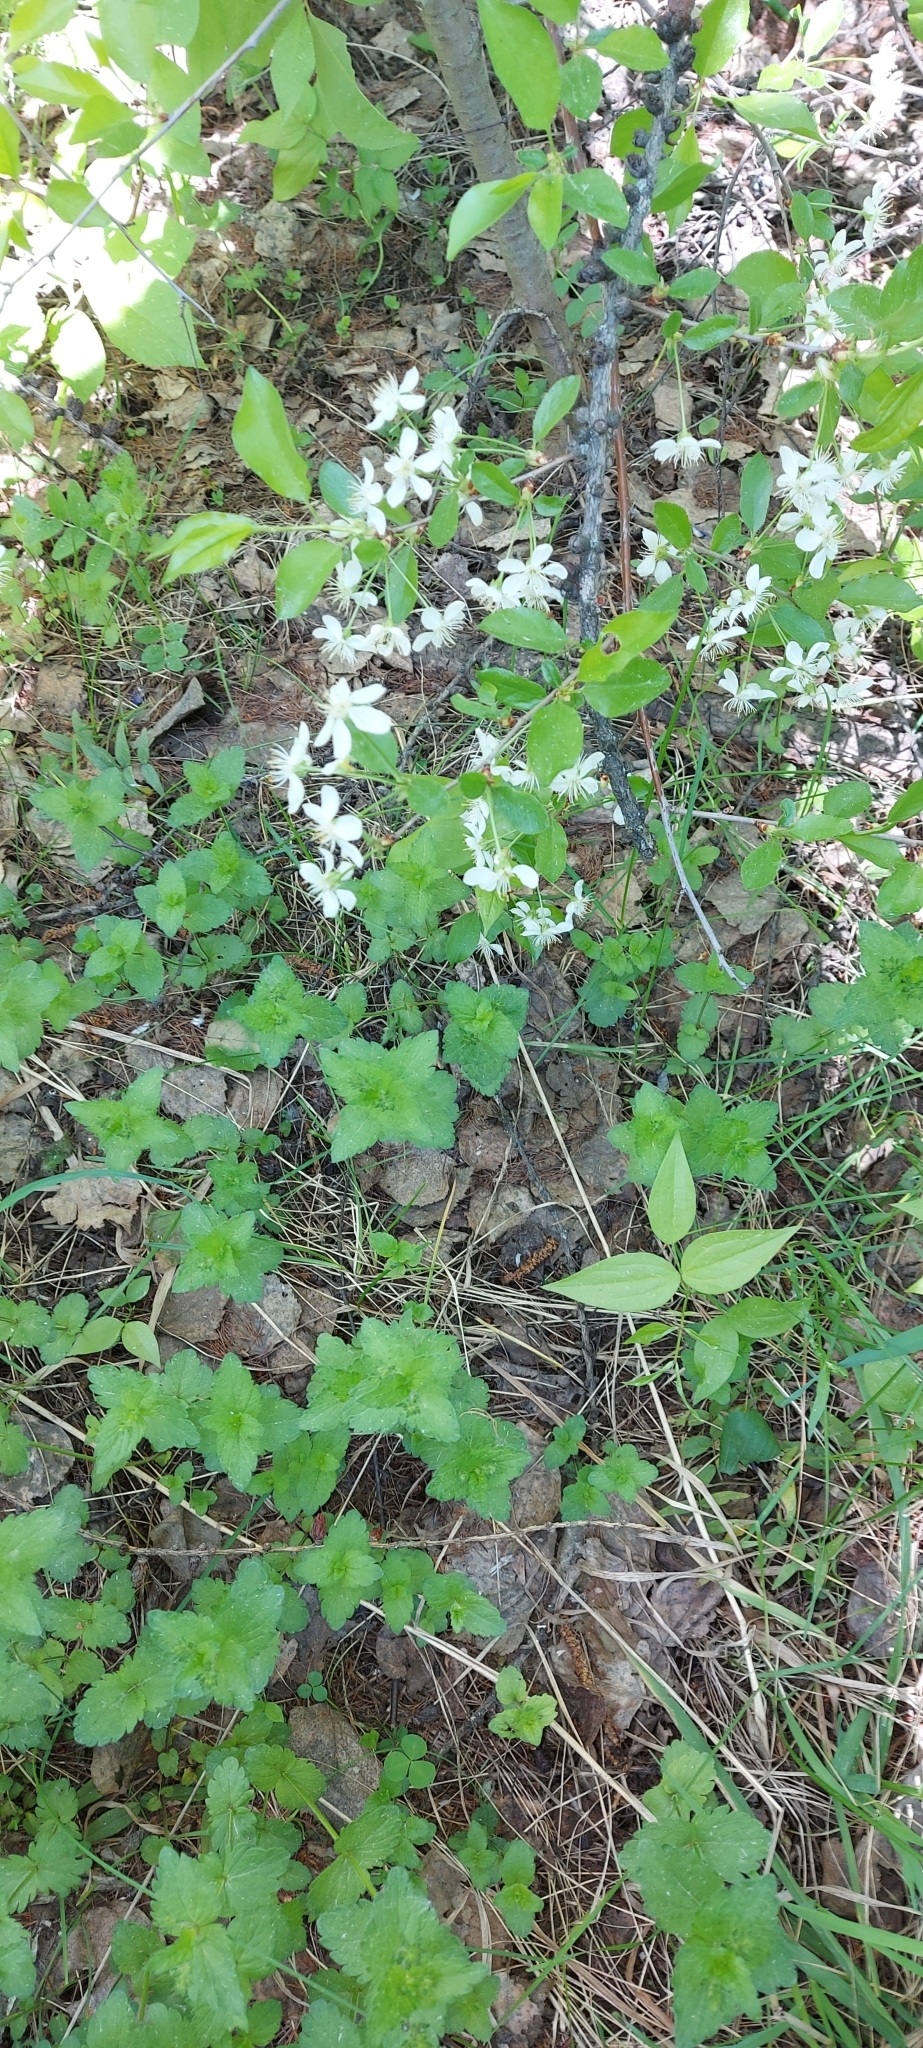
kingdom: Plantae
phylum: Tracheophyta
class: Magnoliopsida
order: Lamiales
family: Plantaginaceae
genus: Veronica
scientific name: Veronica chamaedrys
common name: Germander speedwell
